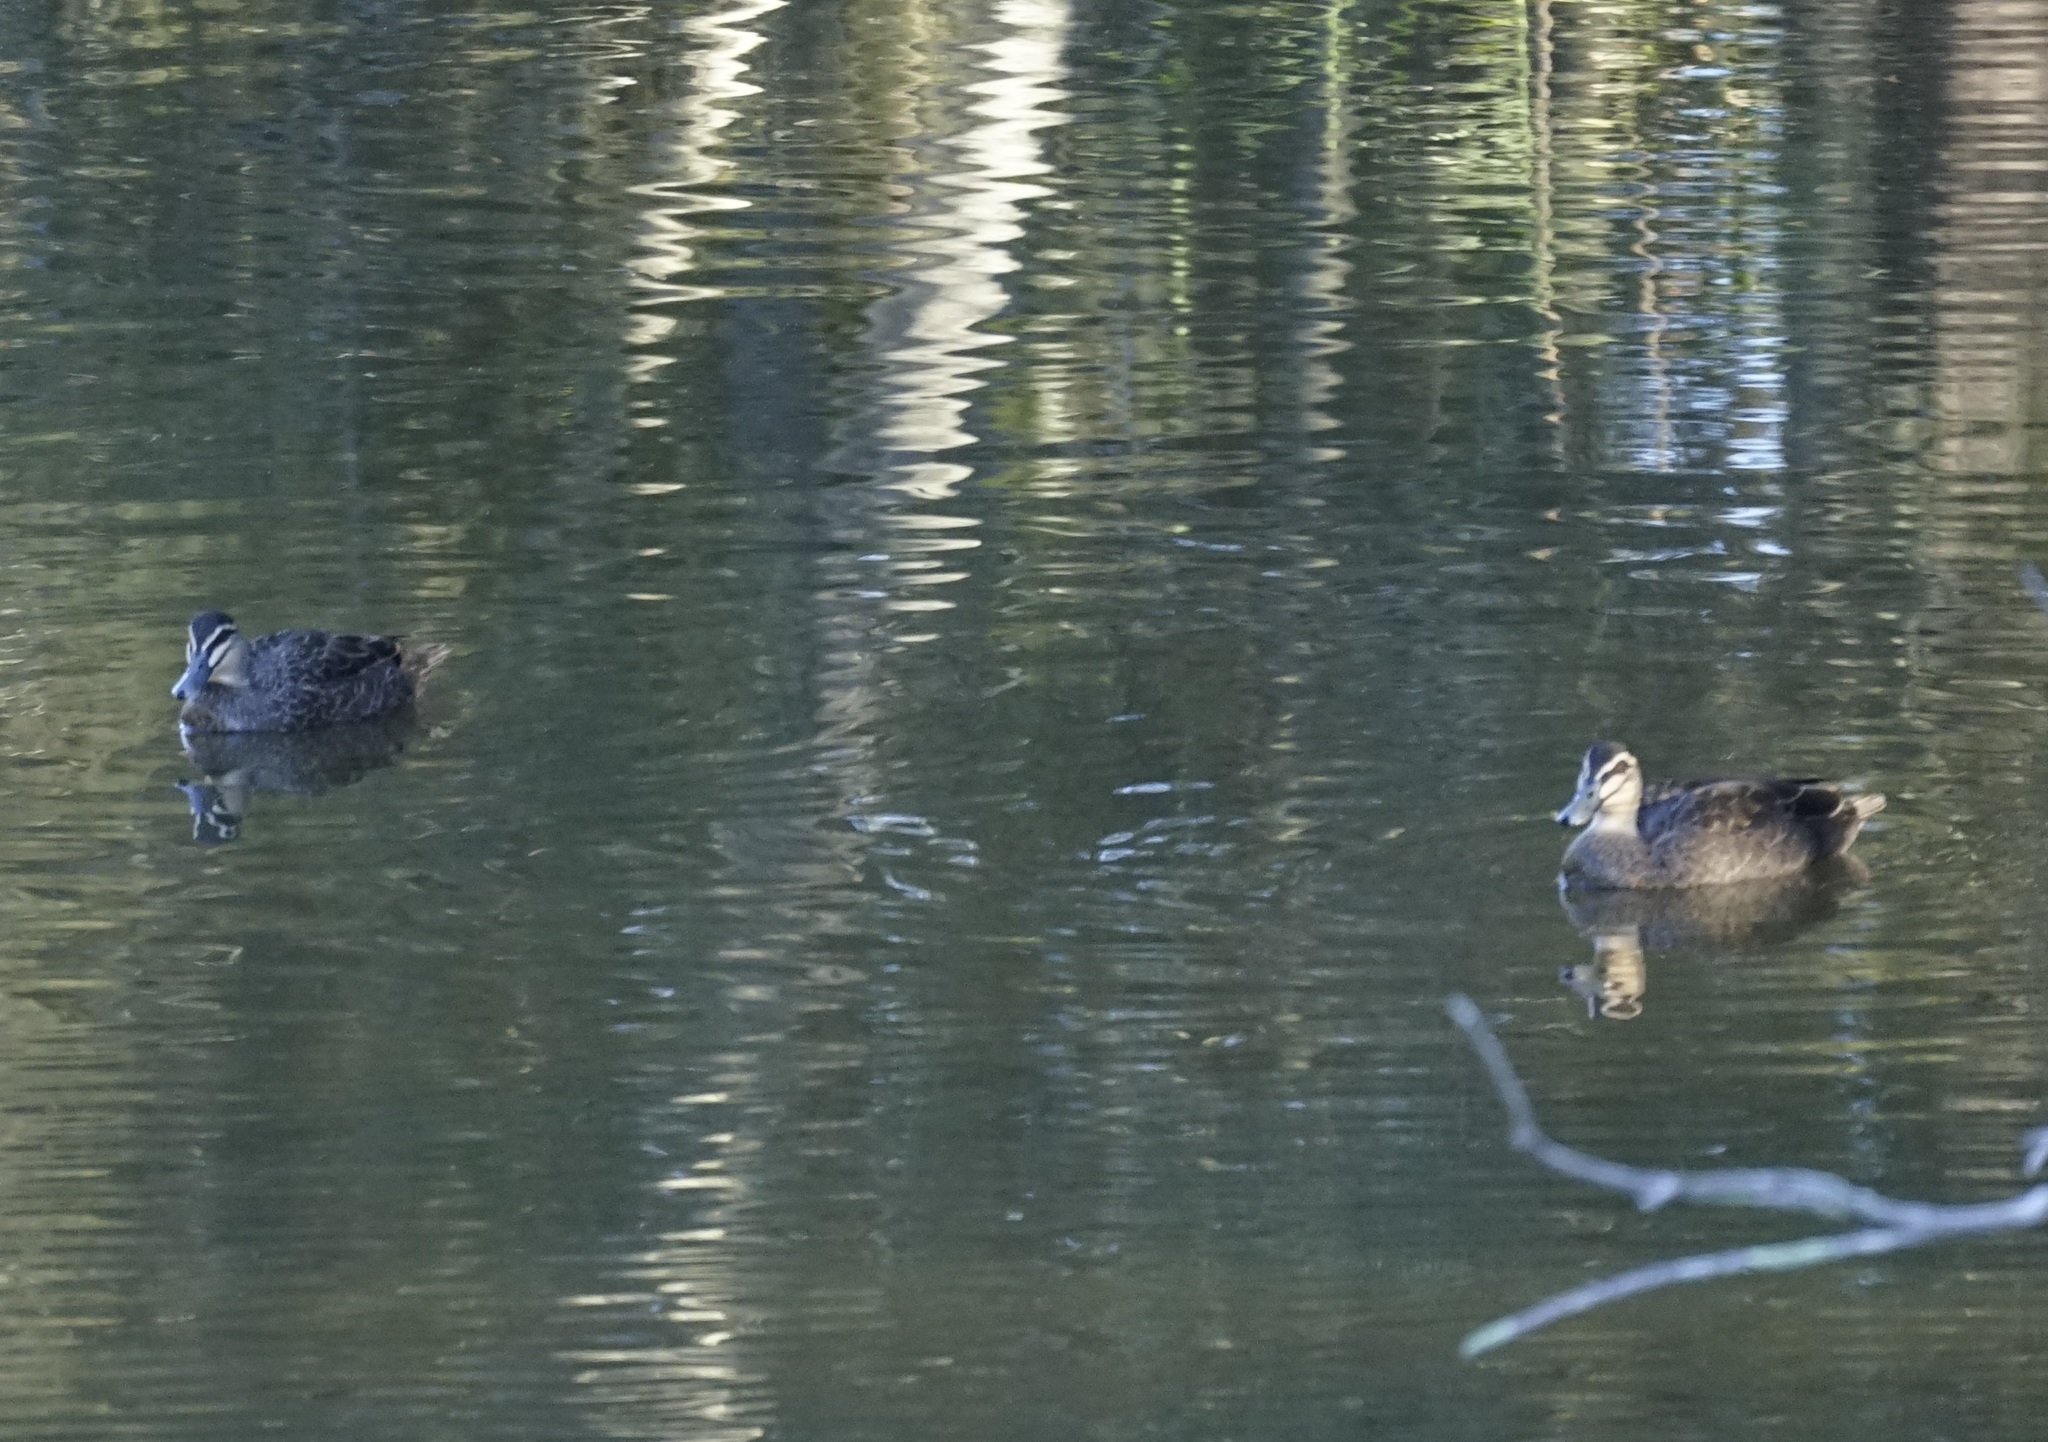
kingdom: Animalia
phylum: Chordata
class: Aves
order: Anseriformes
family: Anatidae
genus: Anas
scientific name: Anas superciliosa
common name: Pacific black duck
